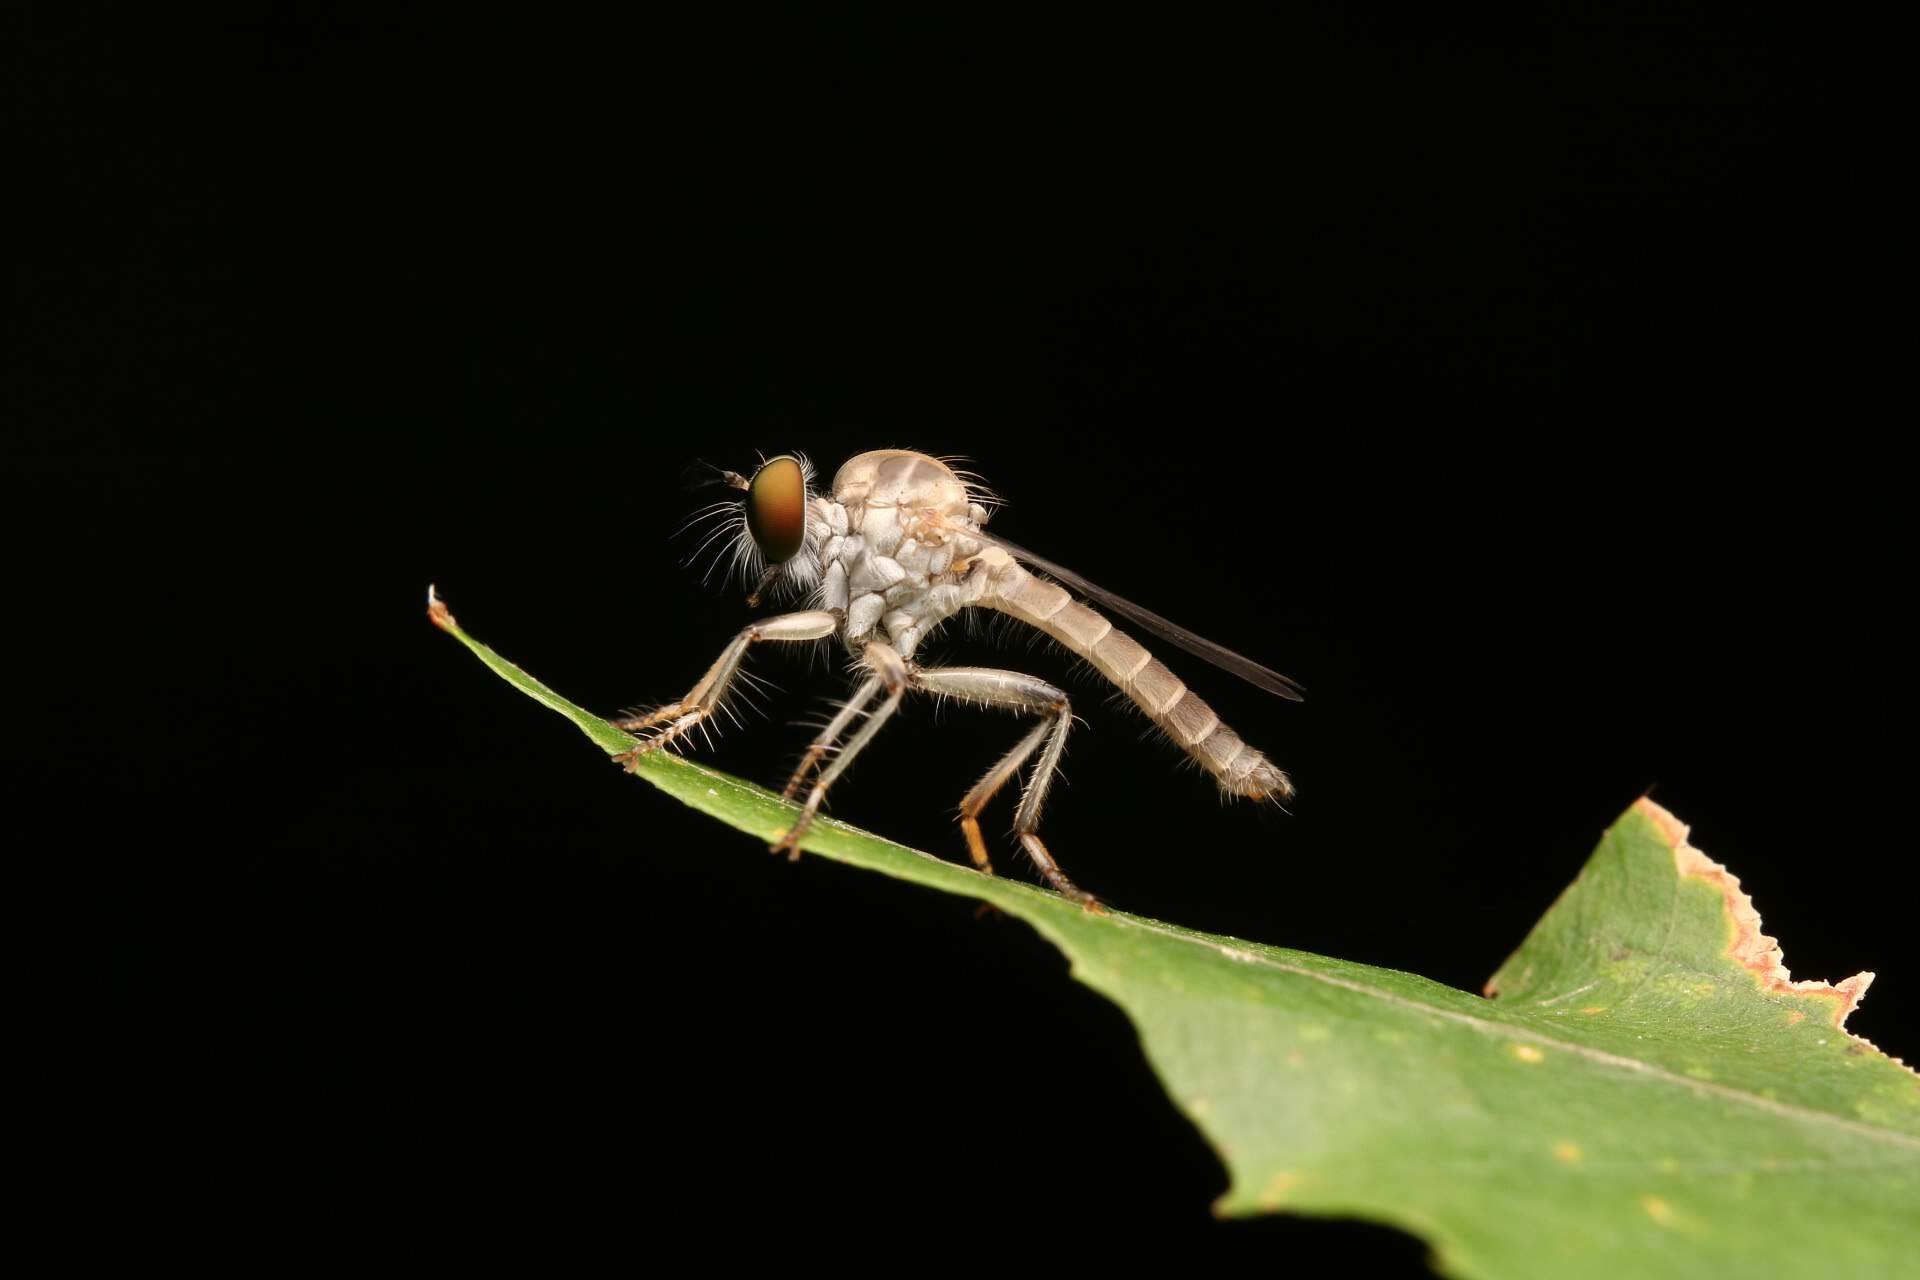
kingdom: Animalia
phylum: Arthropoda
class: Insecta
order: Diptera
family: Asilidae
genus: Ommatius
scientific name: Ommatius gemma
